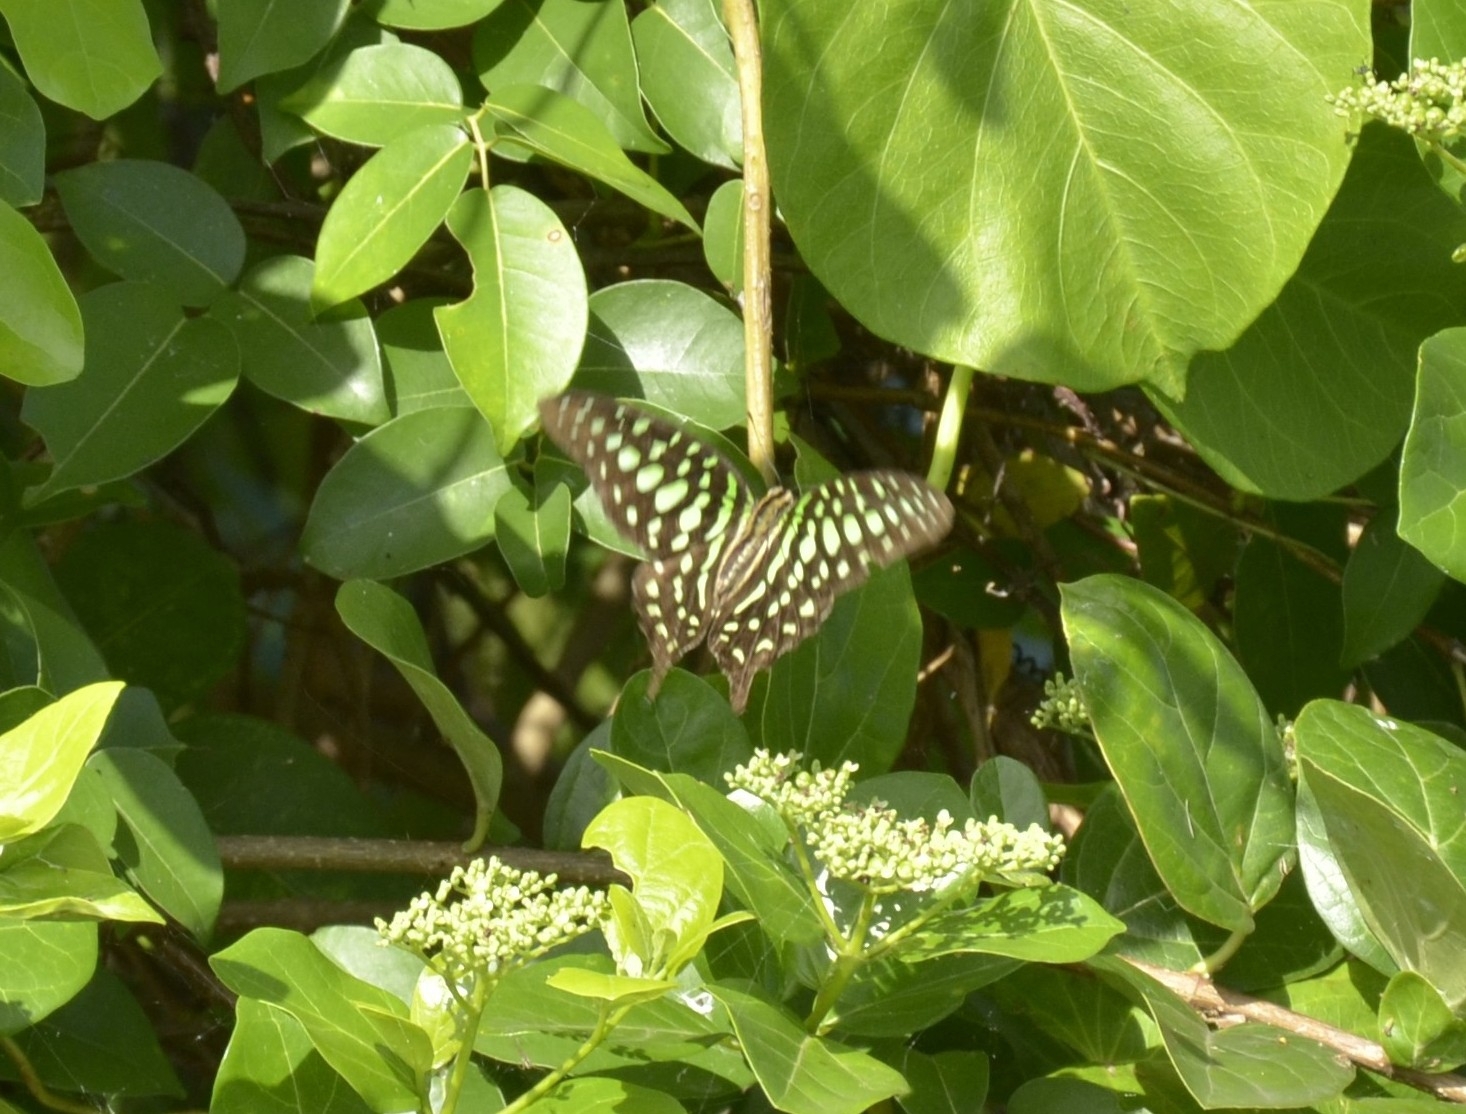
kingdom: Animalia
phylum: Arthropoda
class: Insecta
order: Lepidoptera
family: Papilionidae
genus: Graphium
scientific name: Graphium agamemnon
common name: Tailed jay
